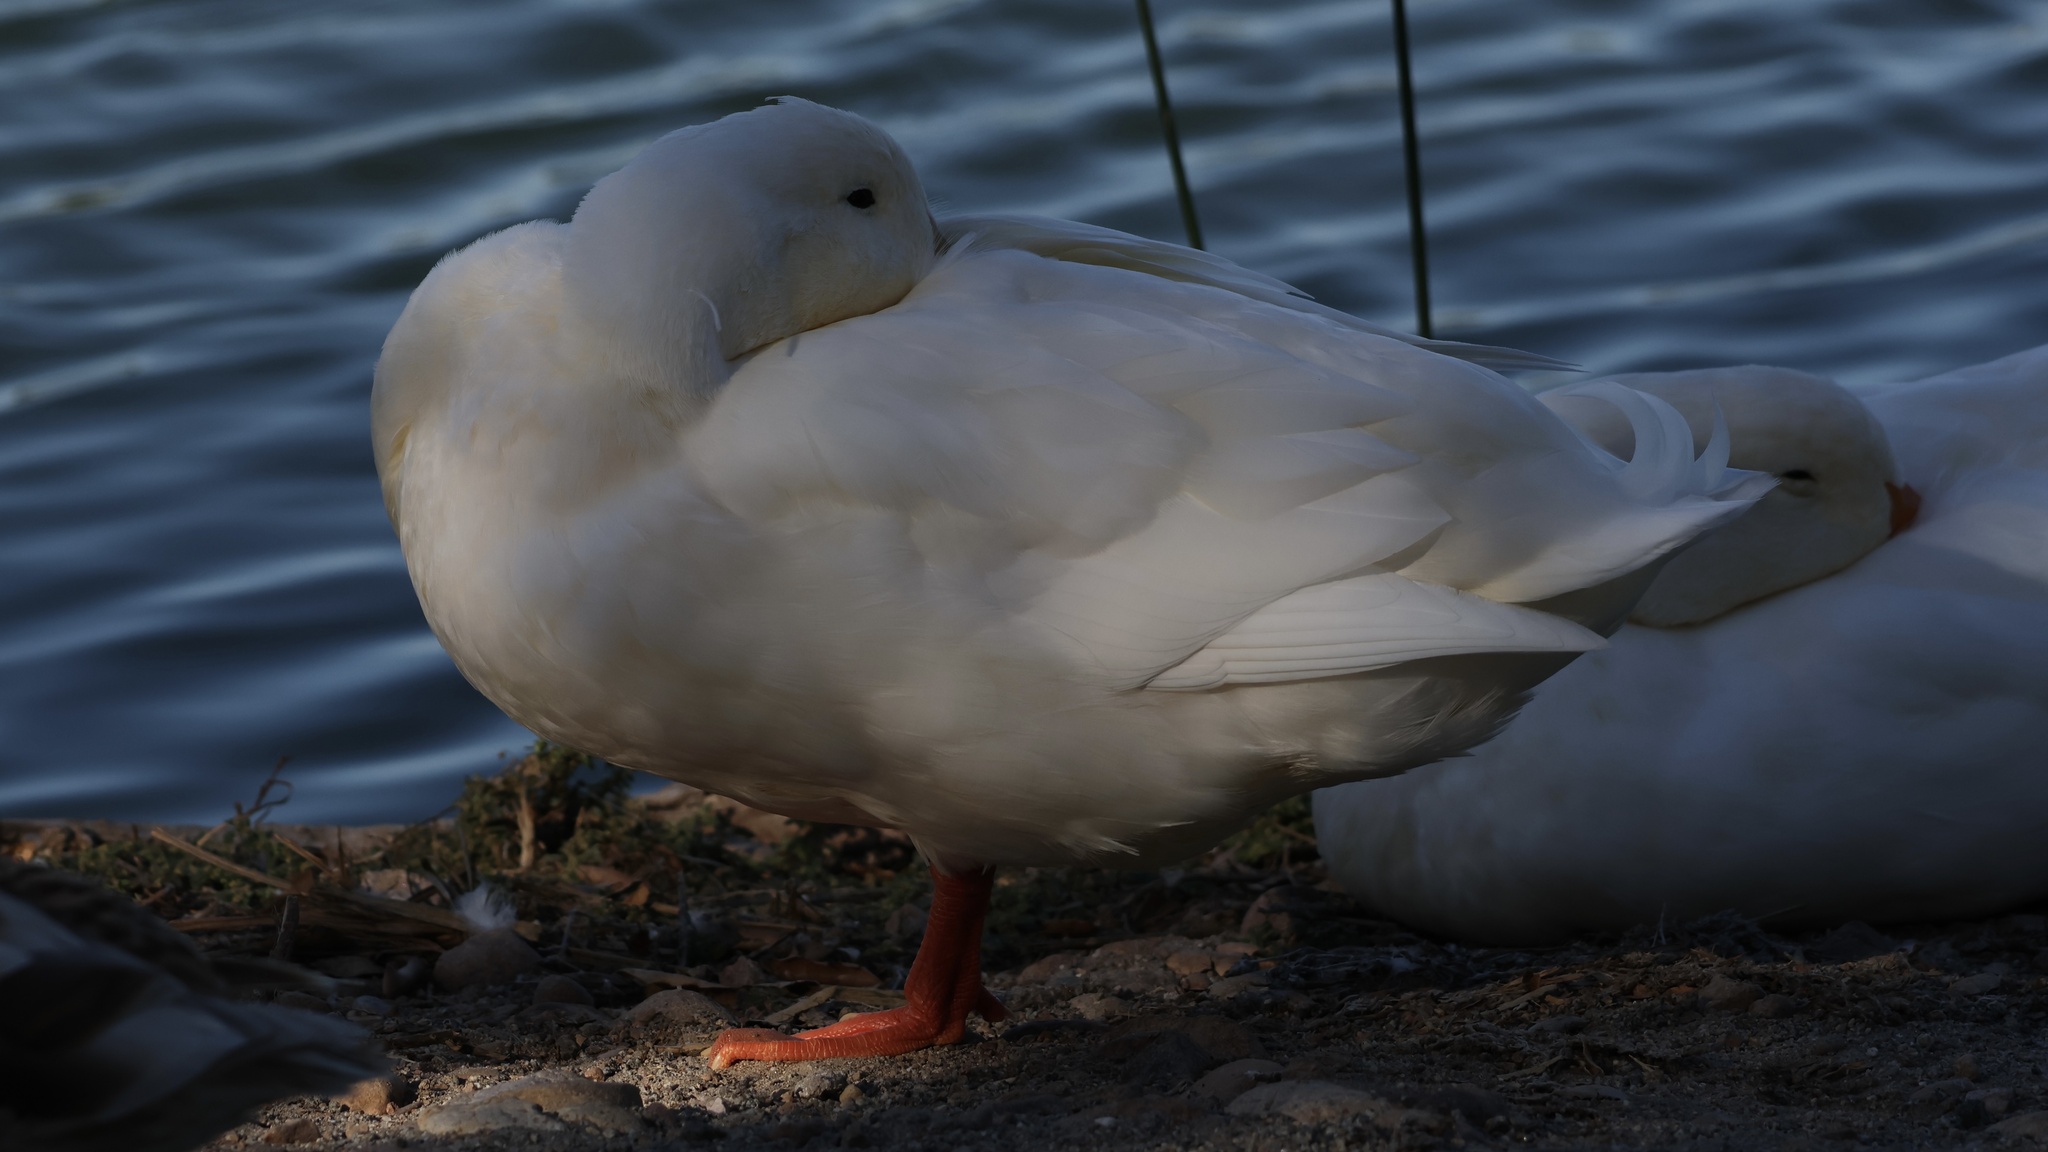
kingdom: Animalia
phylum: Chordata
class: Aves
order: Anseriformes
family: Anatidae
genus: Anas
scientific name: Anas platyrhynchos
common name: Mallard
